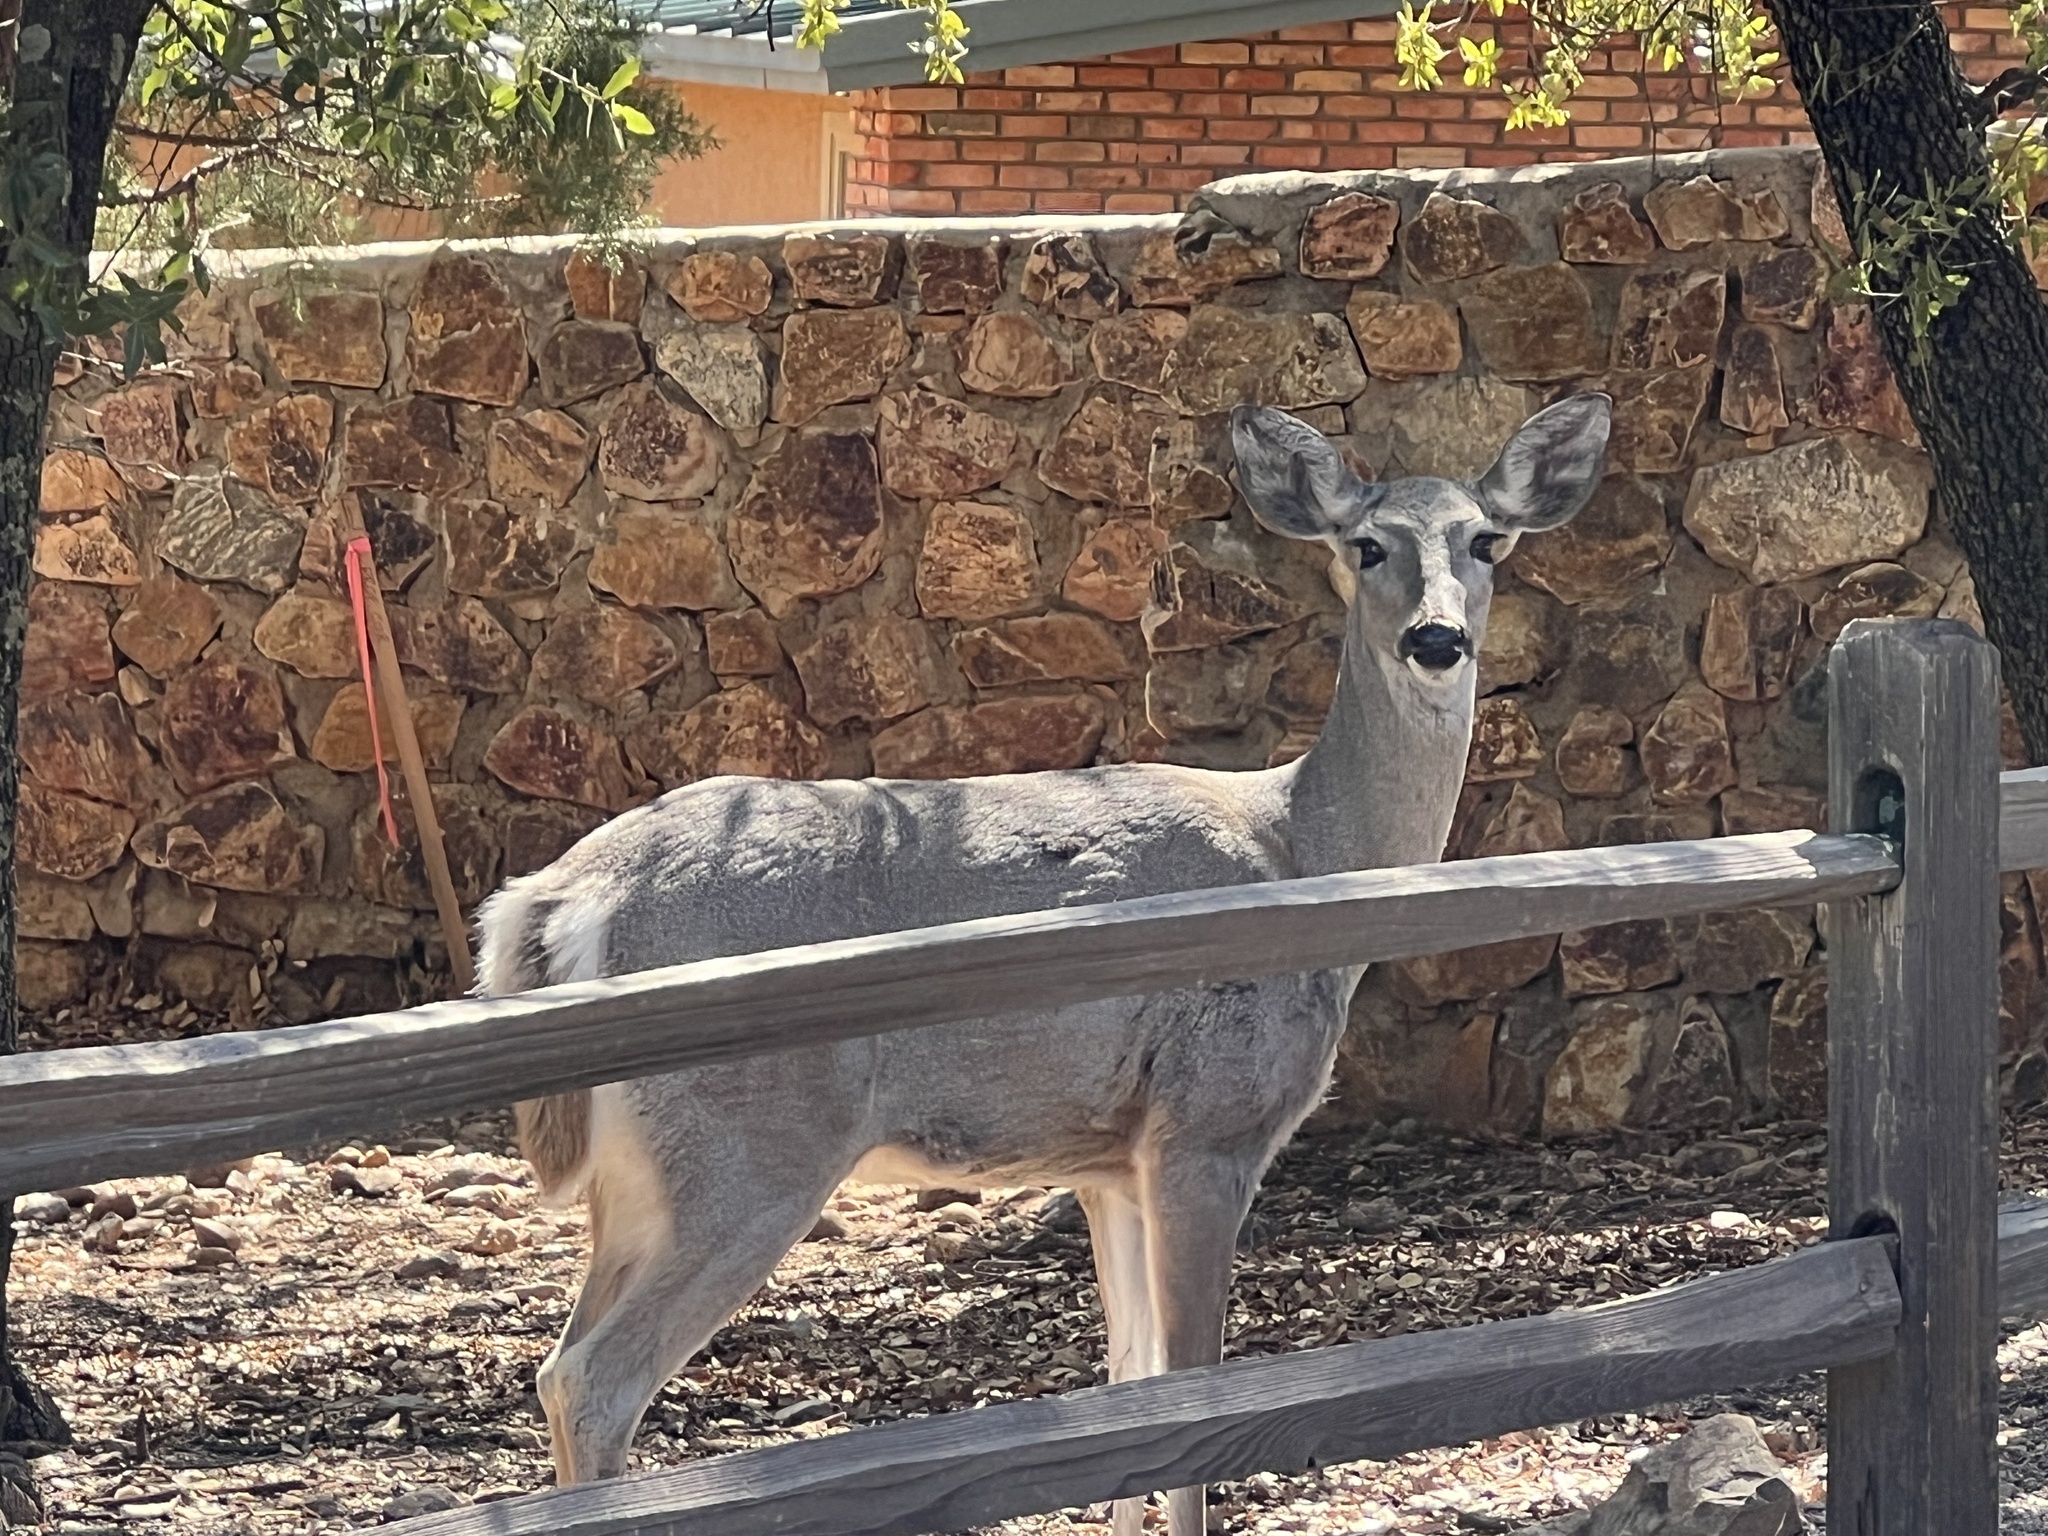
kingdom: Animalia
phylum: Chordata
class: Mammalia
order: Artiodactyla
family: Cervidae
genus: Odocoileus
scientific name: Odocoileus virginianus
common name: White-tailed deer
